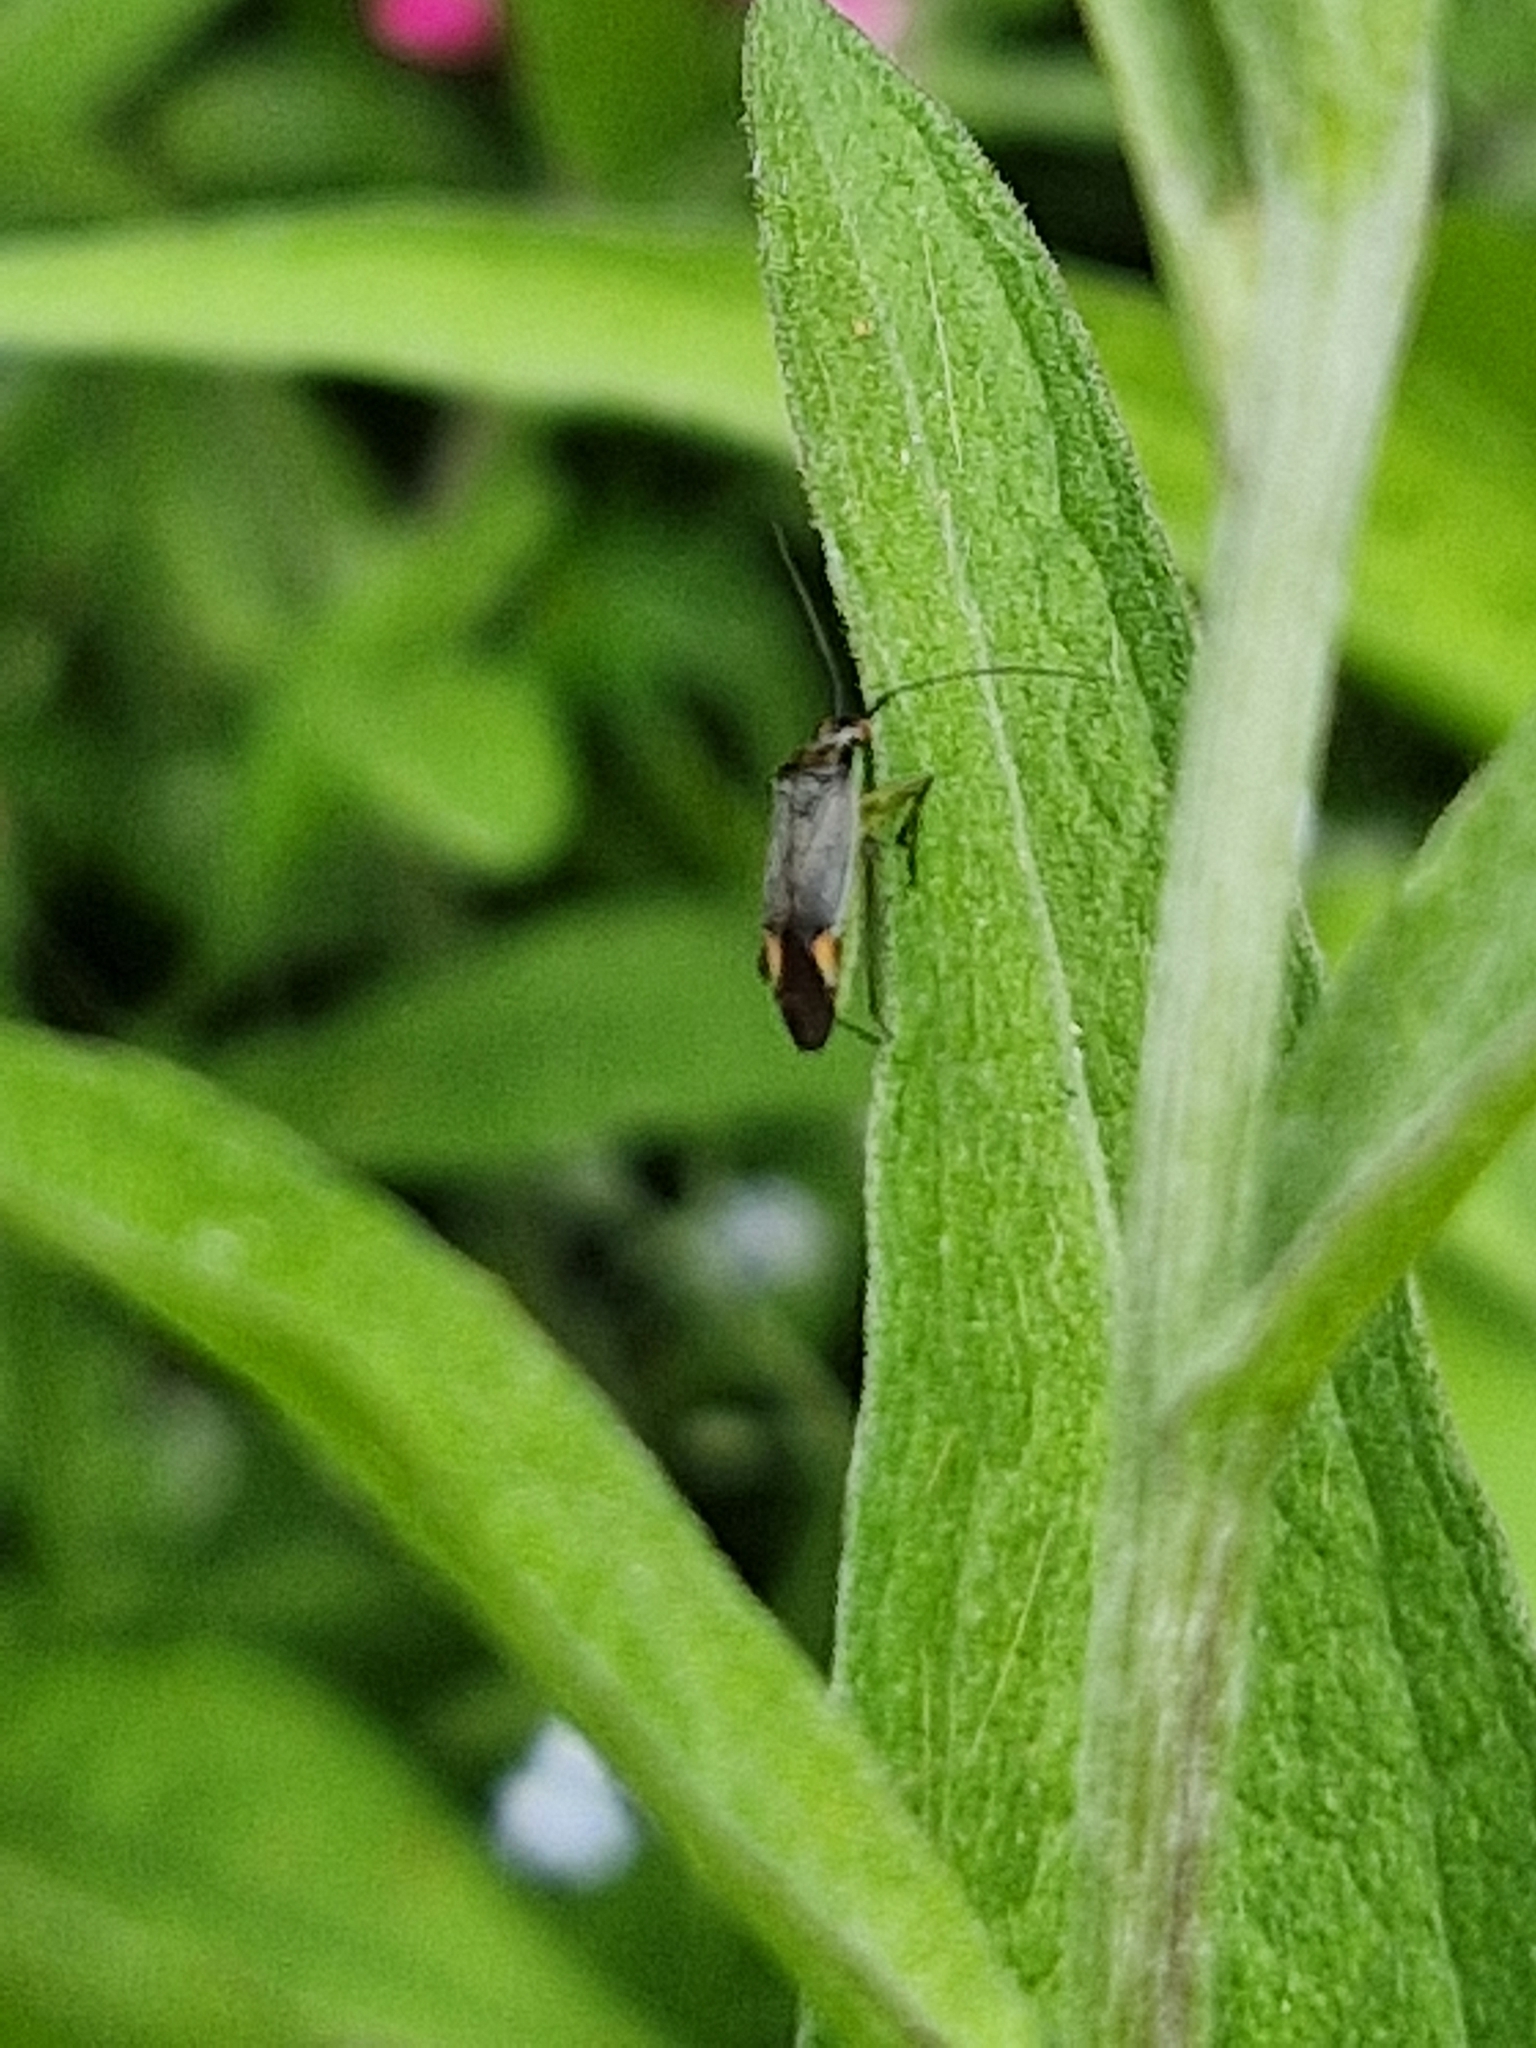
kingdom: Animalia
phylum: Arthropoda
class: Insecta
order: Hemiptera
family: Miridae
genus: Closterotomus
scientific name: Closterotomus trivialis
